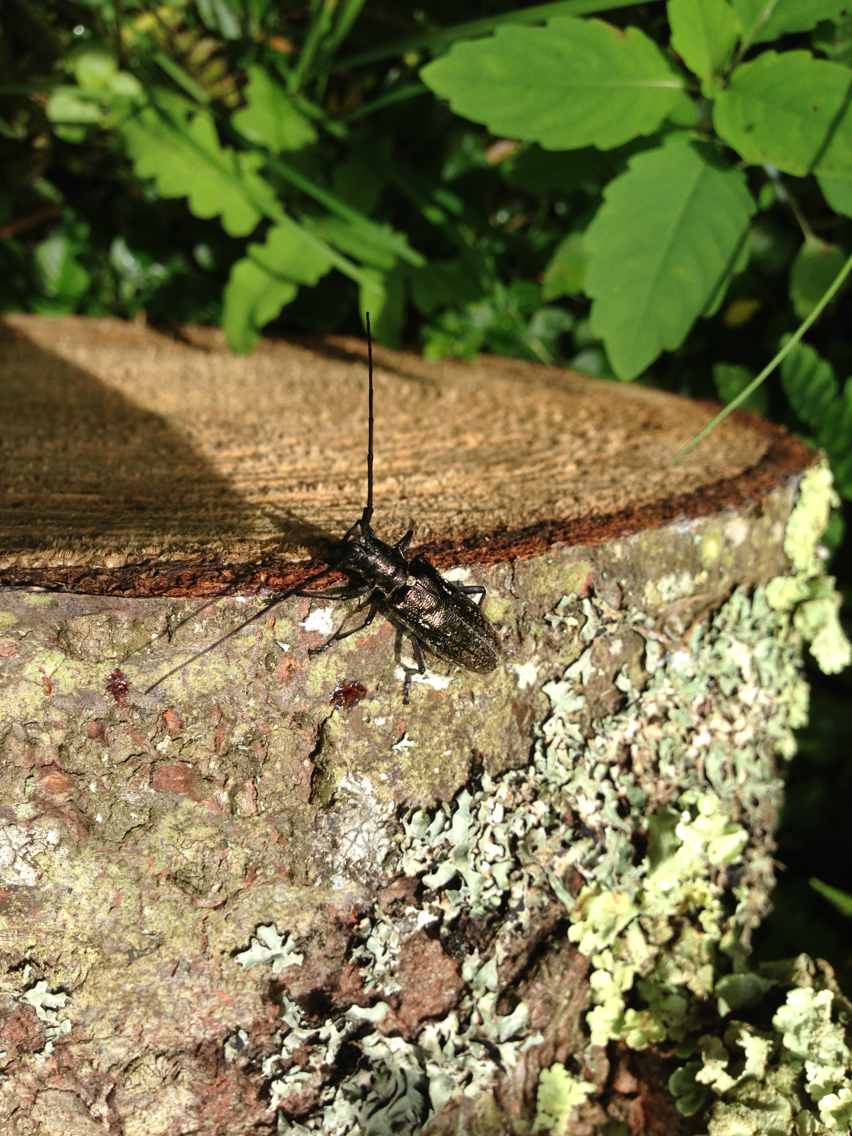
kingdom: Animalia
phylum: Arthropoda
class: Insecta
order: Coleoptera
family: Cerambycidae
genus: Monochamus
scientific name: Monochamus scutellatus
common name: White-spotted sawyer beetle
